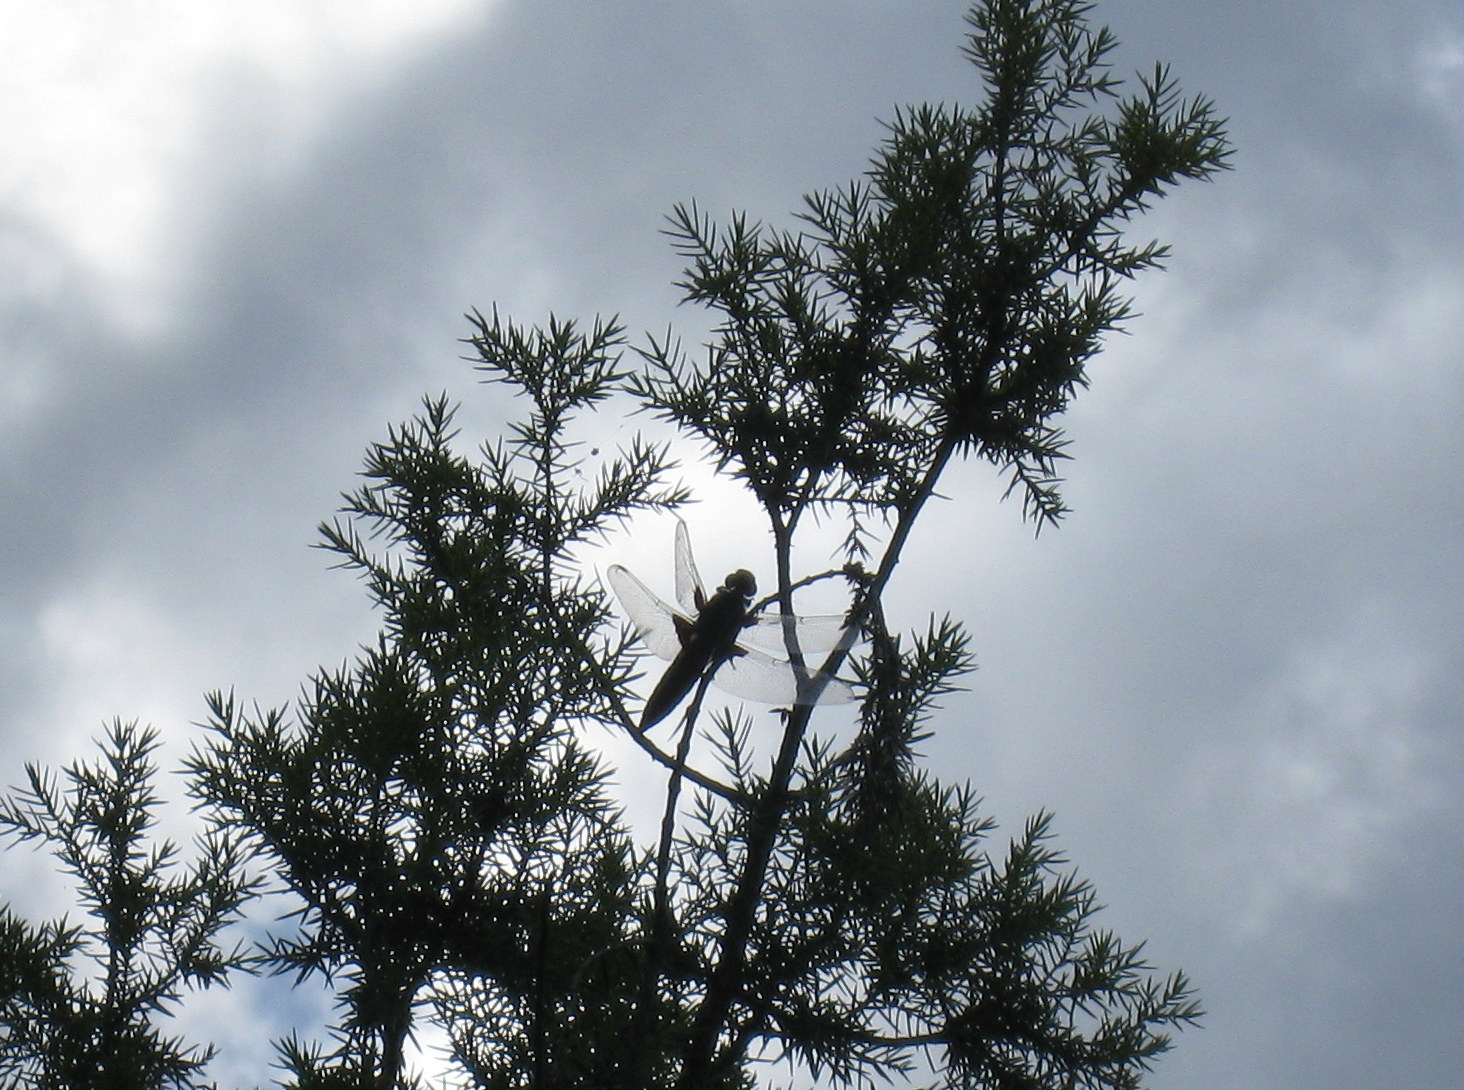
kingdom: Animalia
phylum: Arthropoda
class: Insecta
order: Odonata
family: Libellulidae
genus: Libellula
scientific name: Libellula depressa
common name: Broad-bodied chaser
